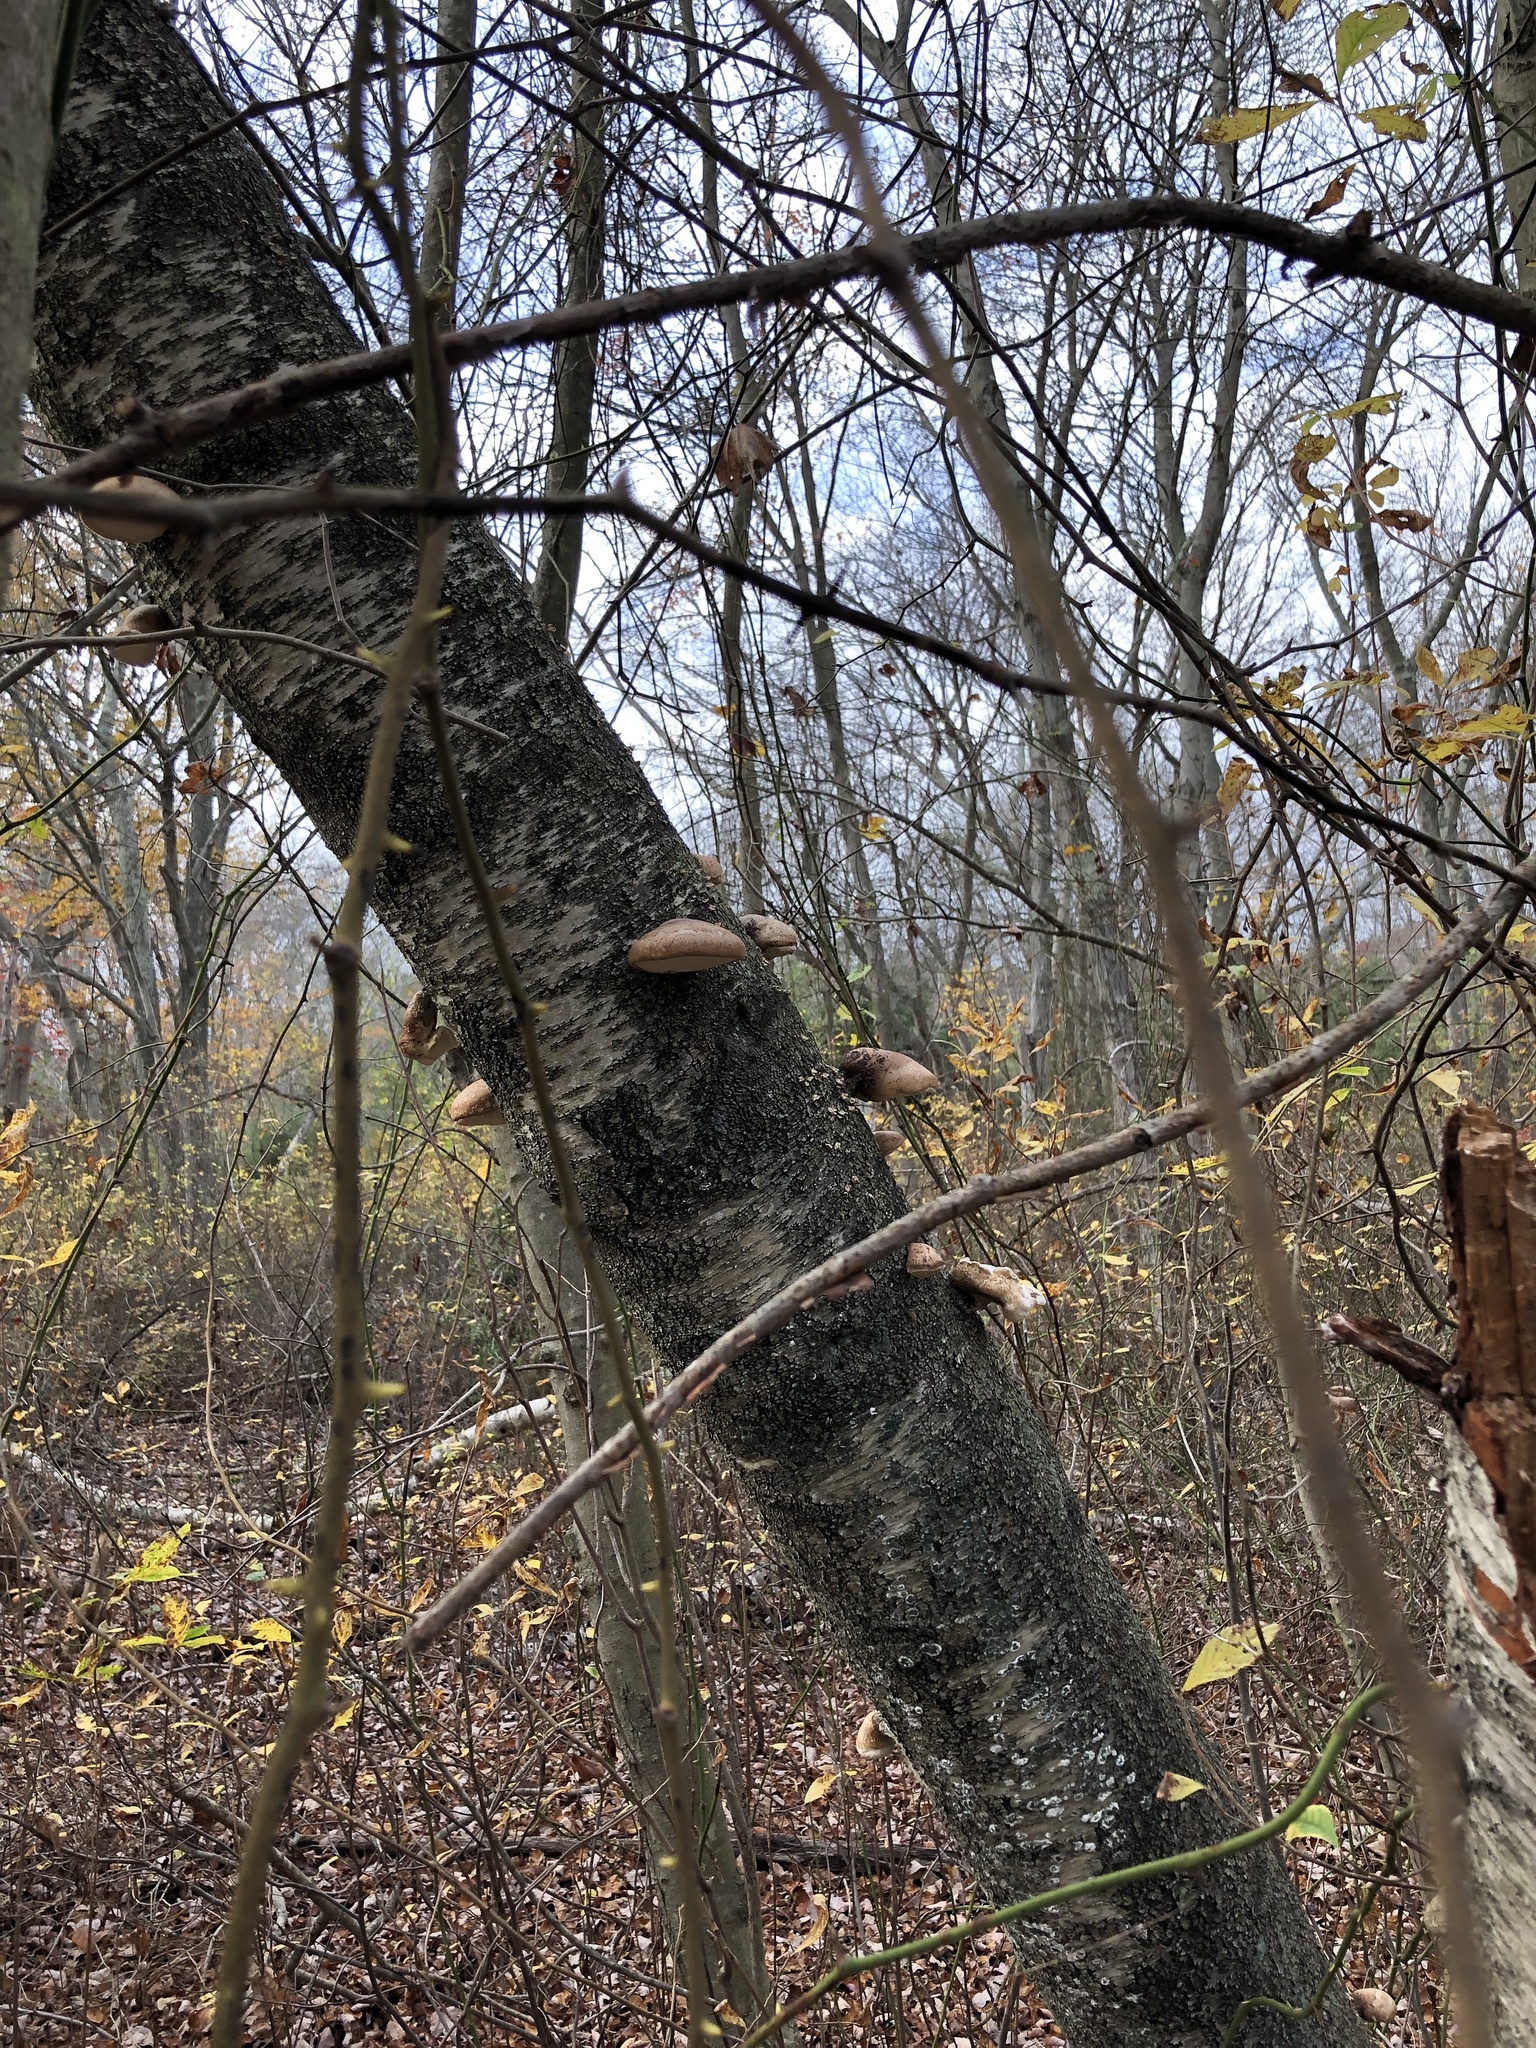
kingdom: Fungi
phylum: Basidiomycota
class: Agaricomycetes
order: Polyporales
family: Fomitopsidaceae
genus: Fomitopsis
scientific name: Fomitopsis betulina
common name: Birch polypore
